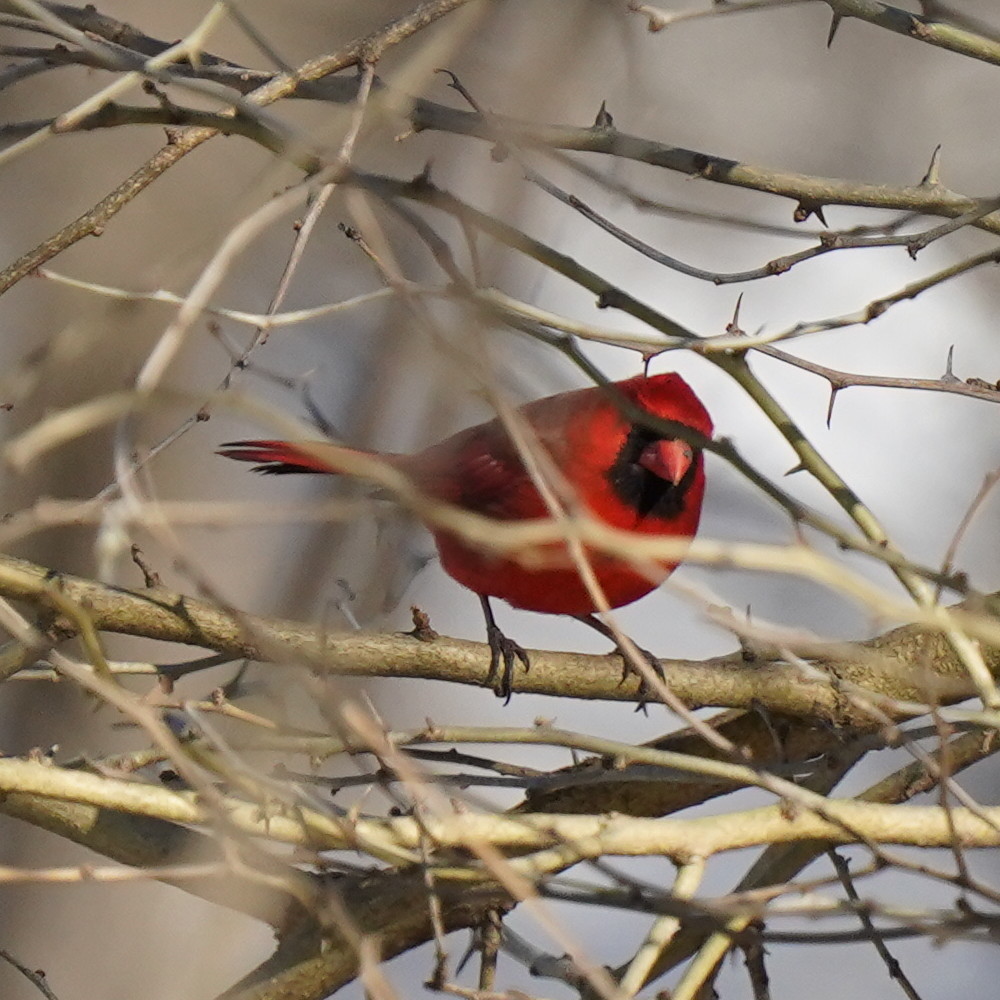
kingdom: Animalia
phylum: Chordata
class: Aves
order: Passeriformes
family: Cardinalidae
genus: Cardinalis
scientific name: Cardinalis cardinalis
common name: Northern cardinal
